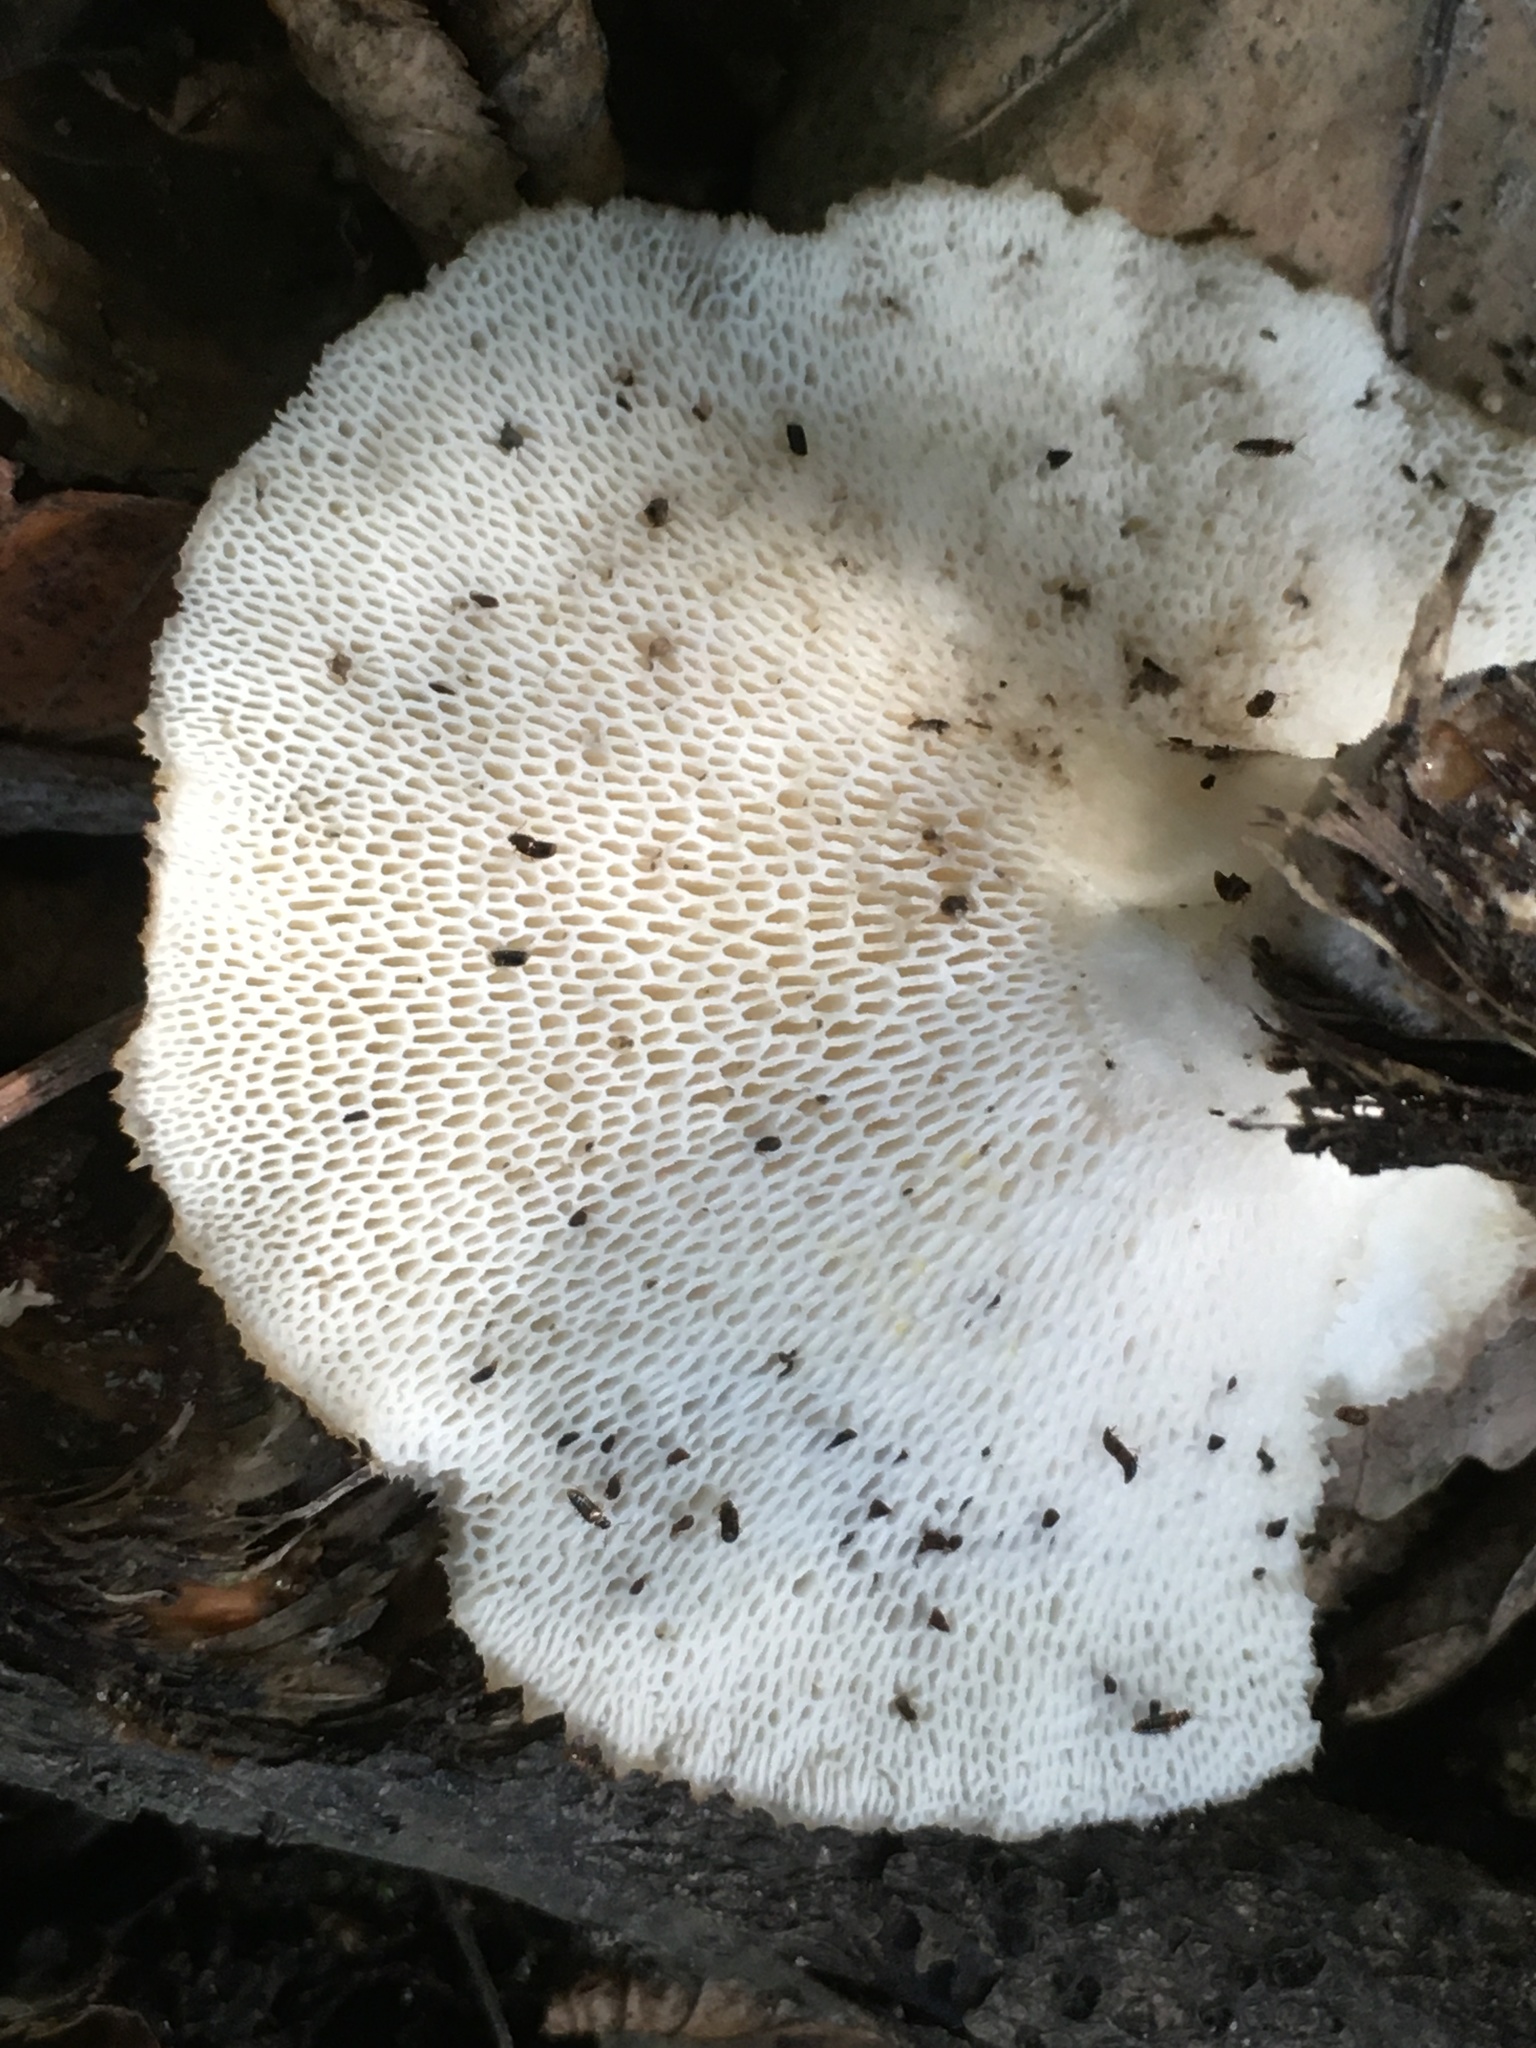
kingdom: Fungi
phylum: Basidiomycota
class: Agaricomycetes
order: Polyporales
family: Polyporaceae
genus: Polyporus
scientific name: Polyporus tuberaster
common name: Tuberous polypore
